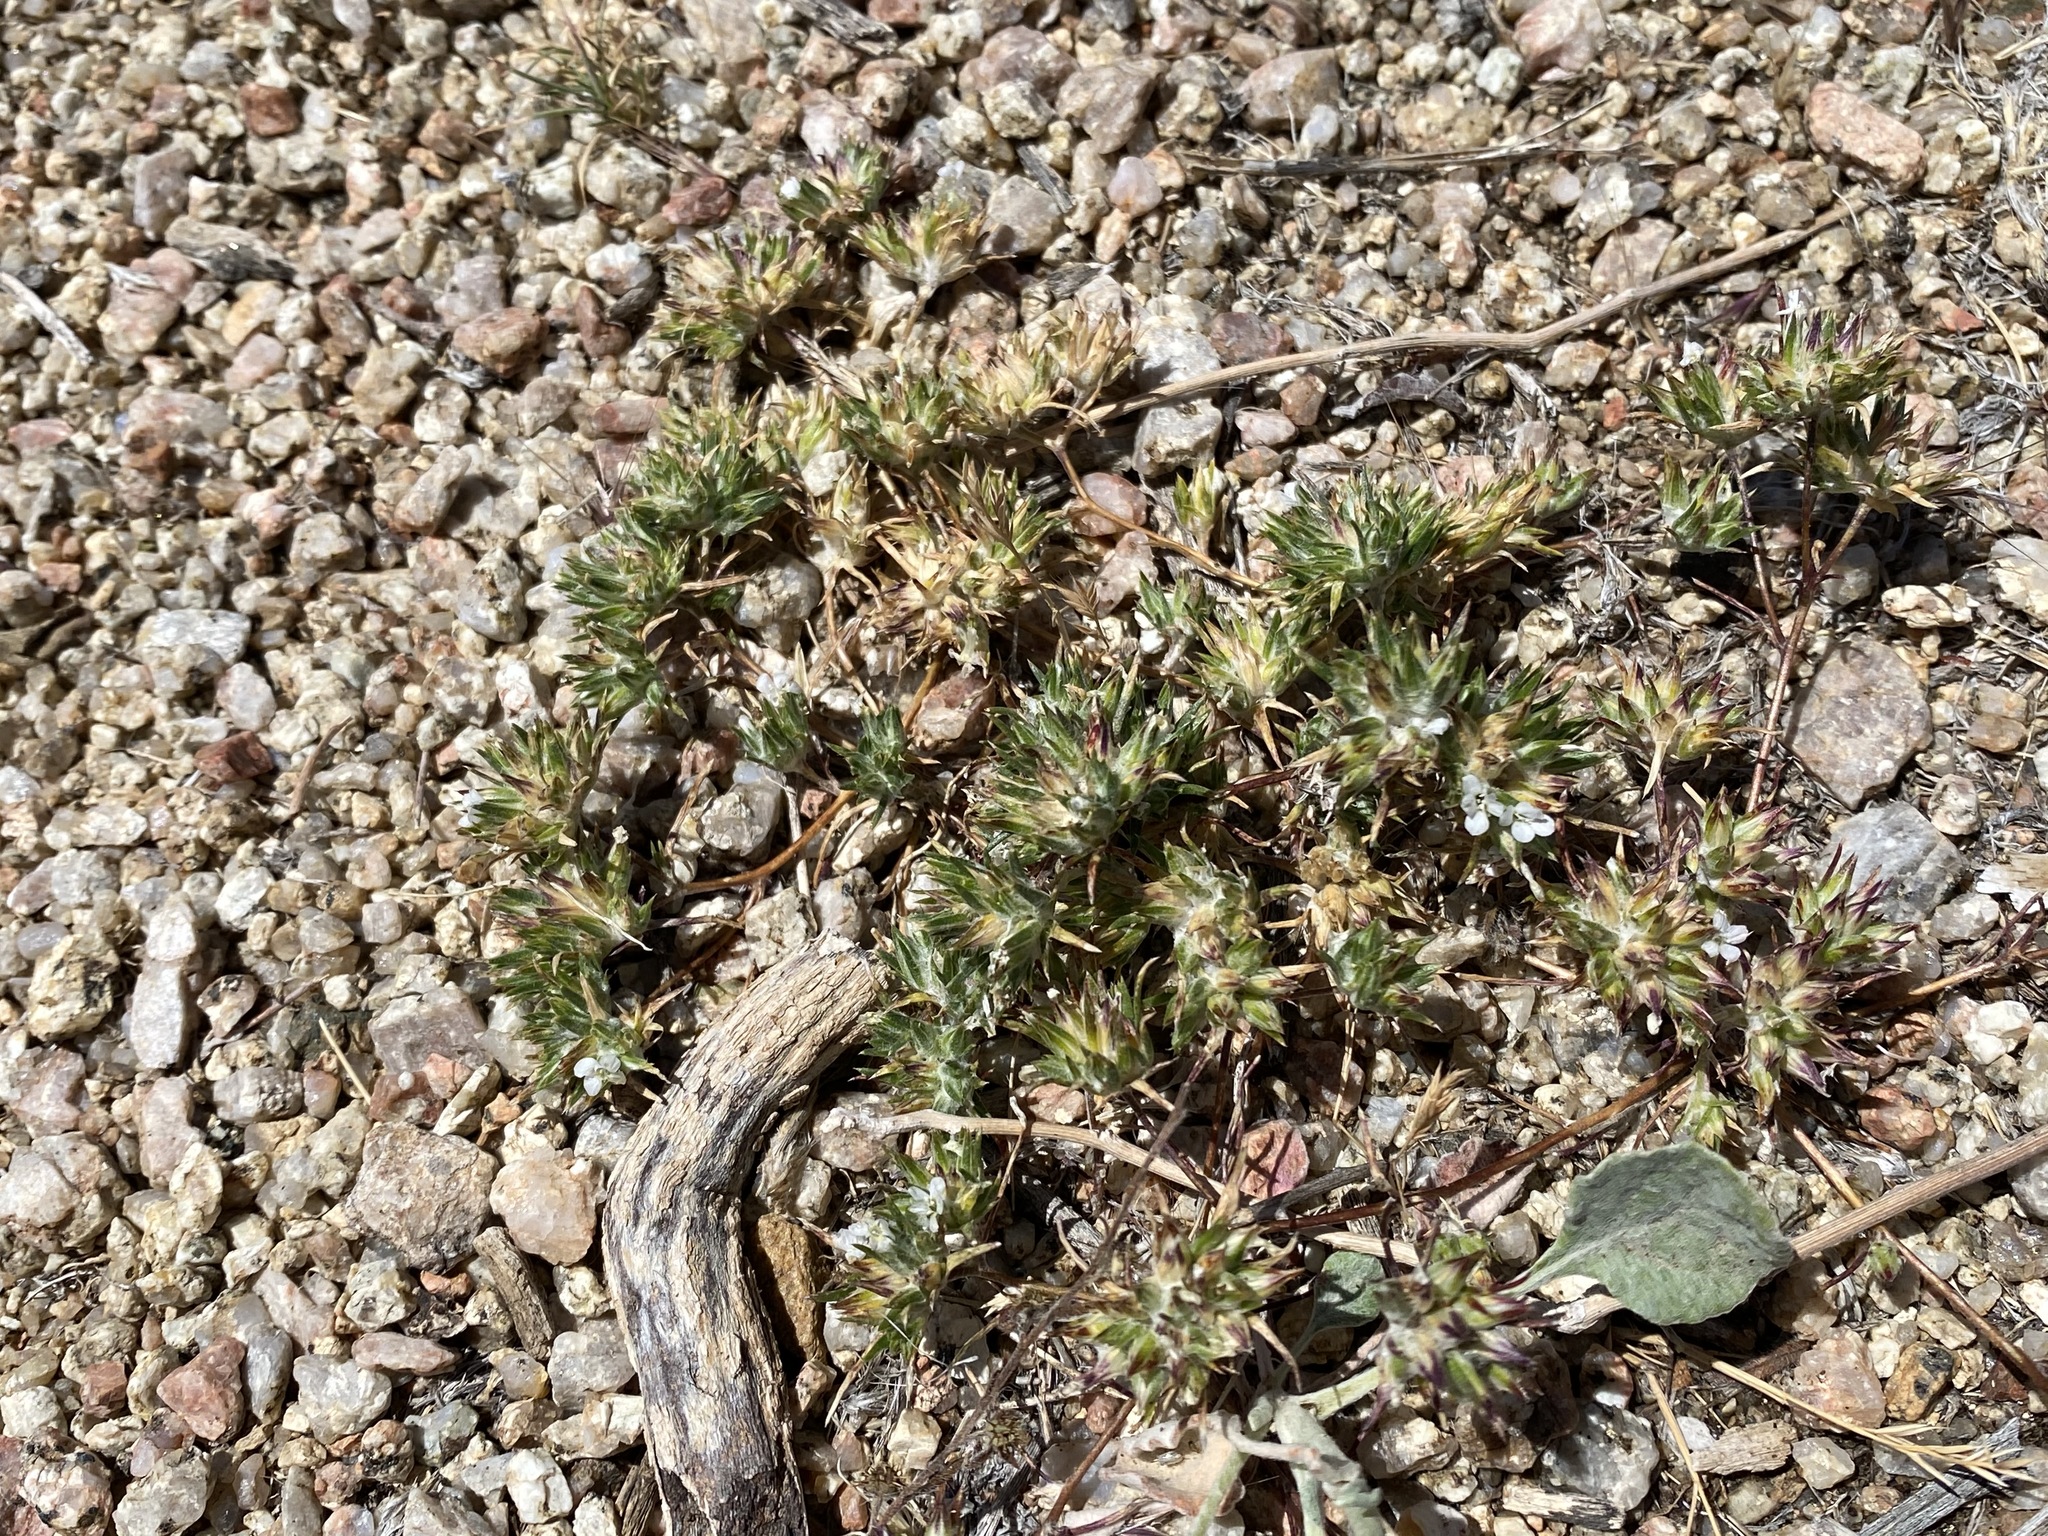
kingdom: Plantae
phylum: Tracheophyta
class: Magnoliopsida
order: Ericales
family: Polemoniaceae
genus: Eriastrum
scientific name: Eriastrum diffusum
